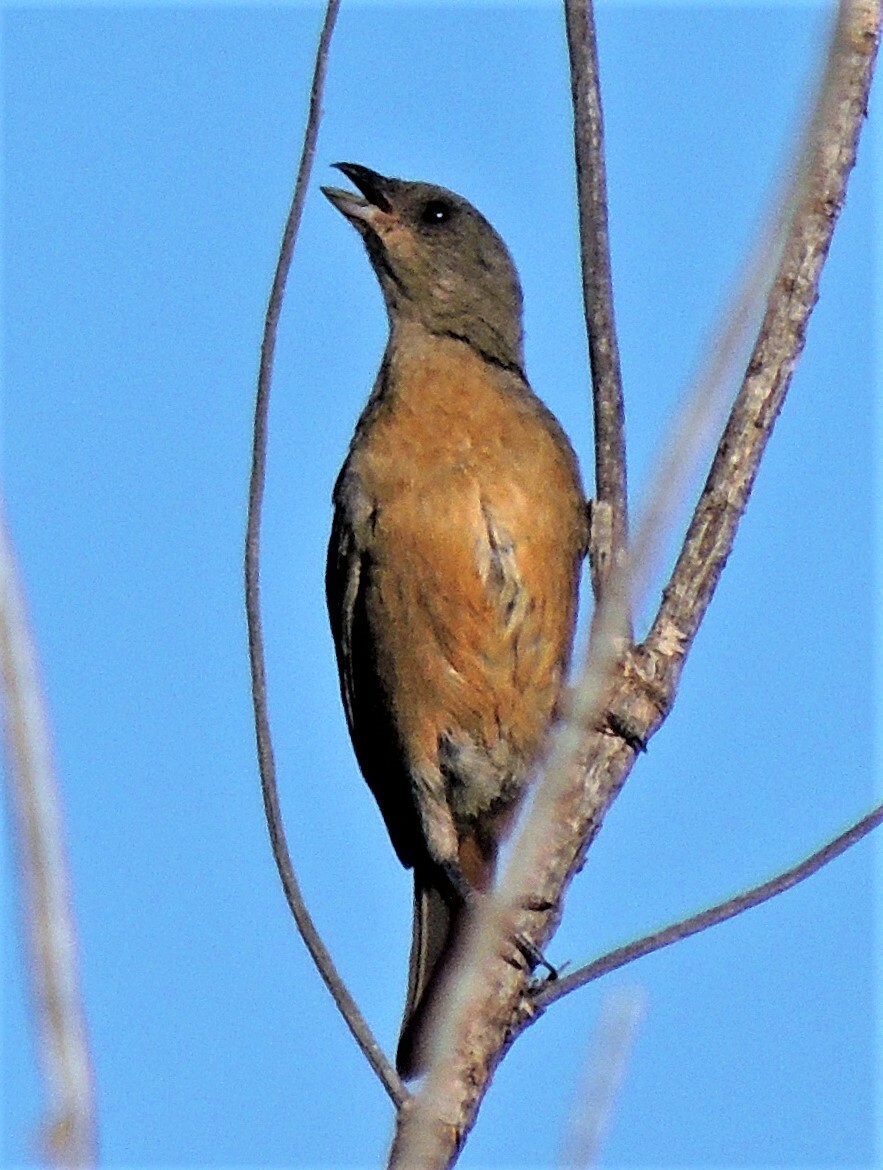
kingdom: Animalia
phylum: Chordata
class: Aves
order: Passeriformes
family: Thraupidae
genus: Rauenia
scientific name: Rauenia bonariensis
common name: Blue-and-yellow tanager
